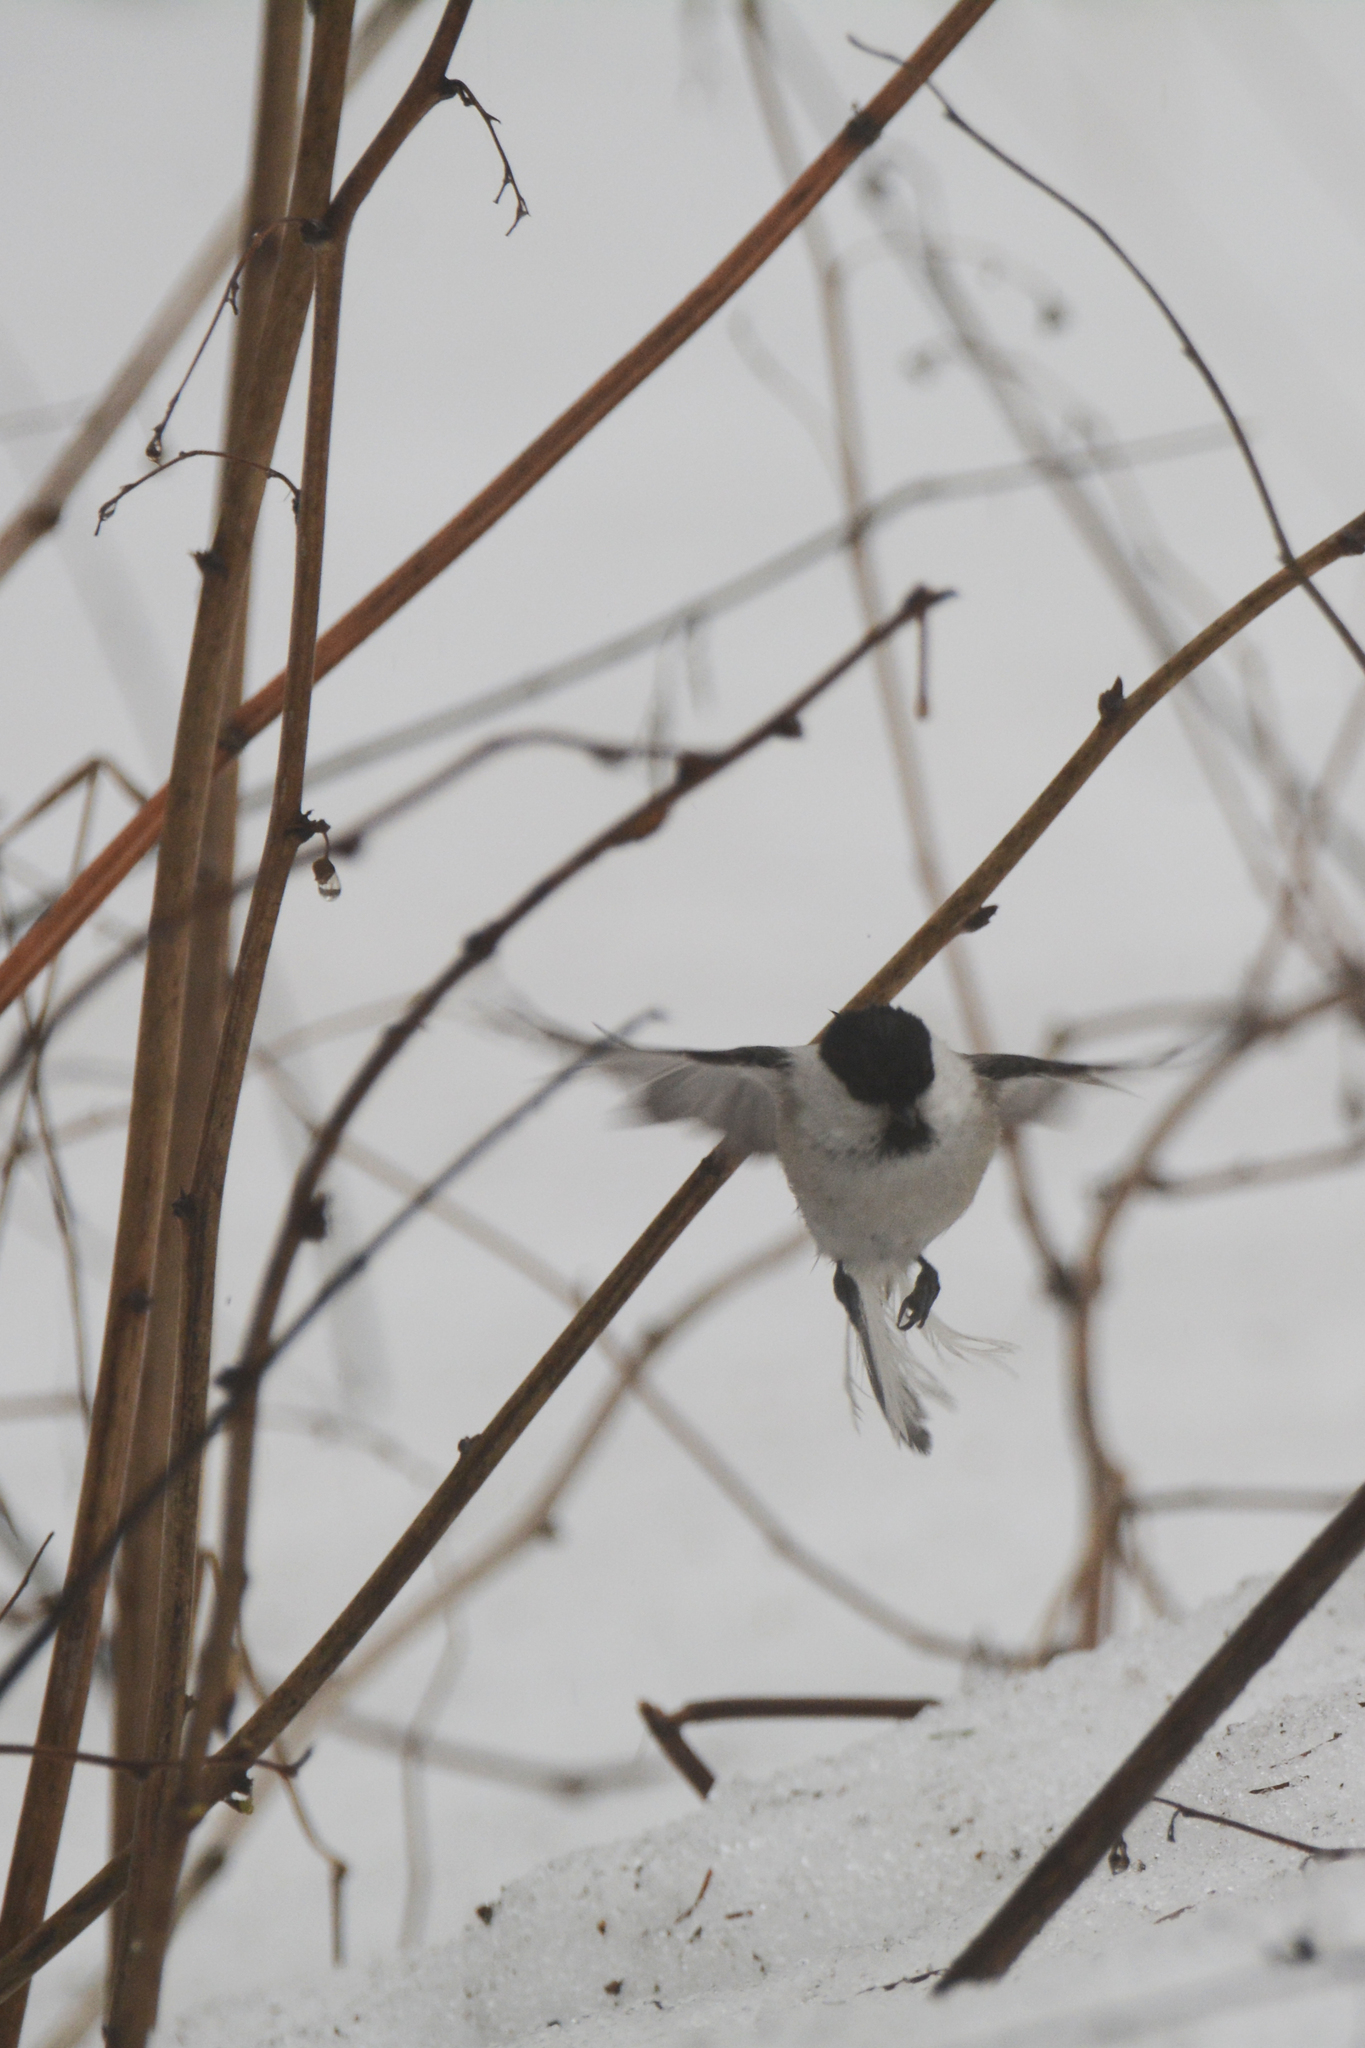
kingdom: Animalia
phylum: Chordata
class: Aves
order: Passeriformes
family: Paridae
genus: Poecile
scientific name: Poecile montanus
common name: Willow tit
